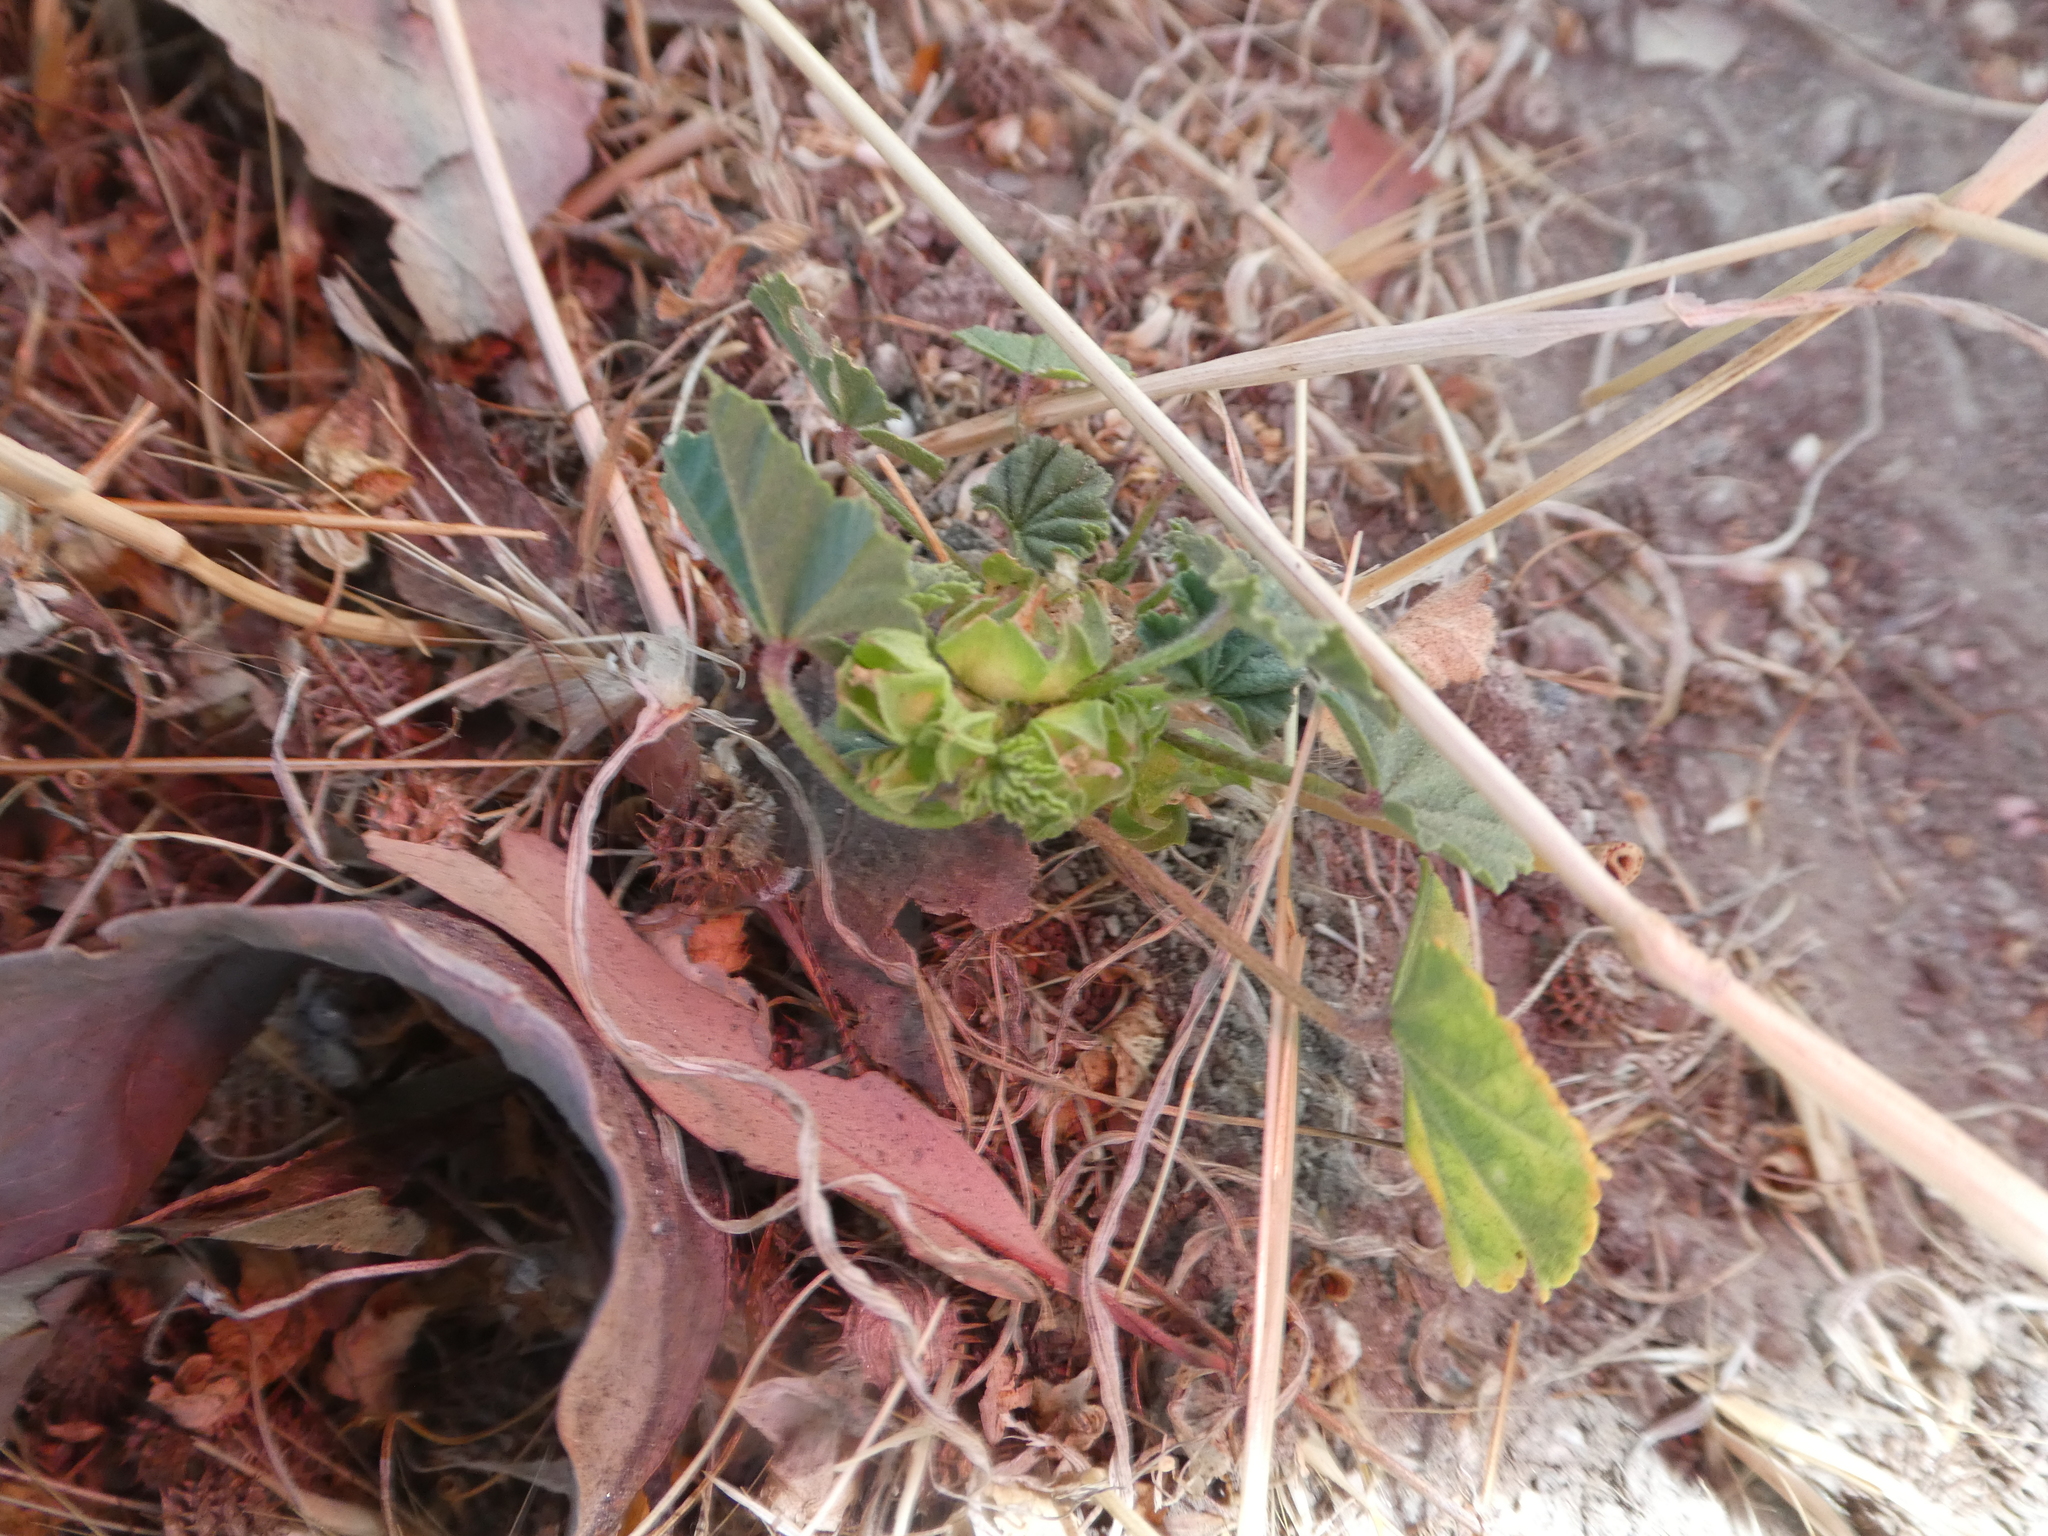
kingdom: Plantae
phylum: Tracheophyta
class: Magnoliopsida
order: Malvales
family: Malvaceae
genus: Malva
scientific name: Malva parviflora
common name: Least mallow
